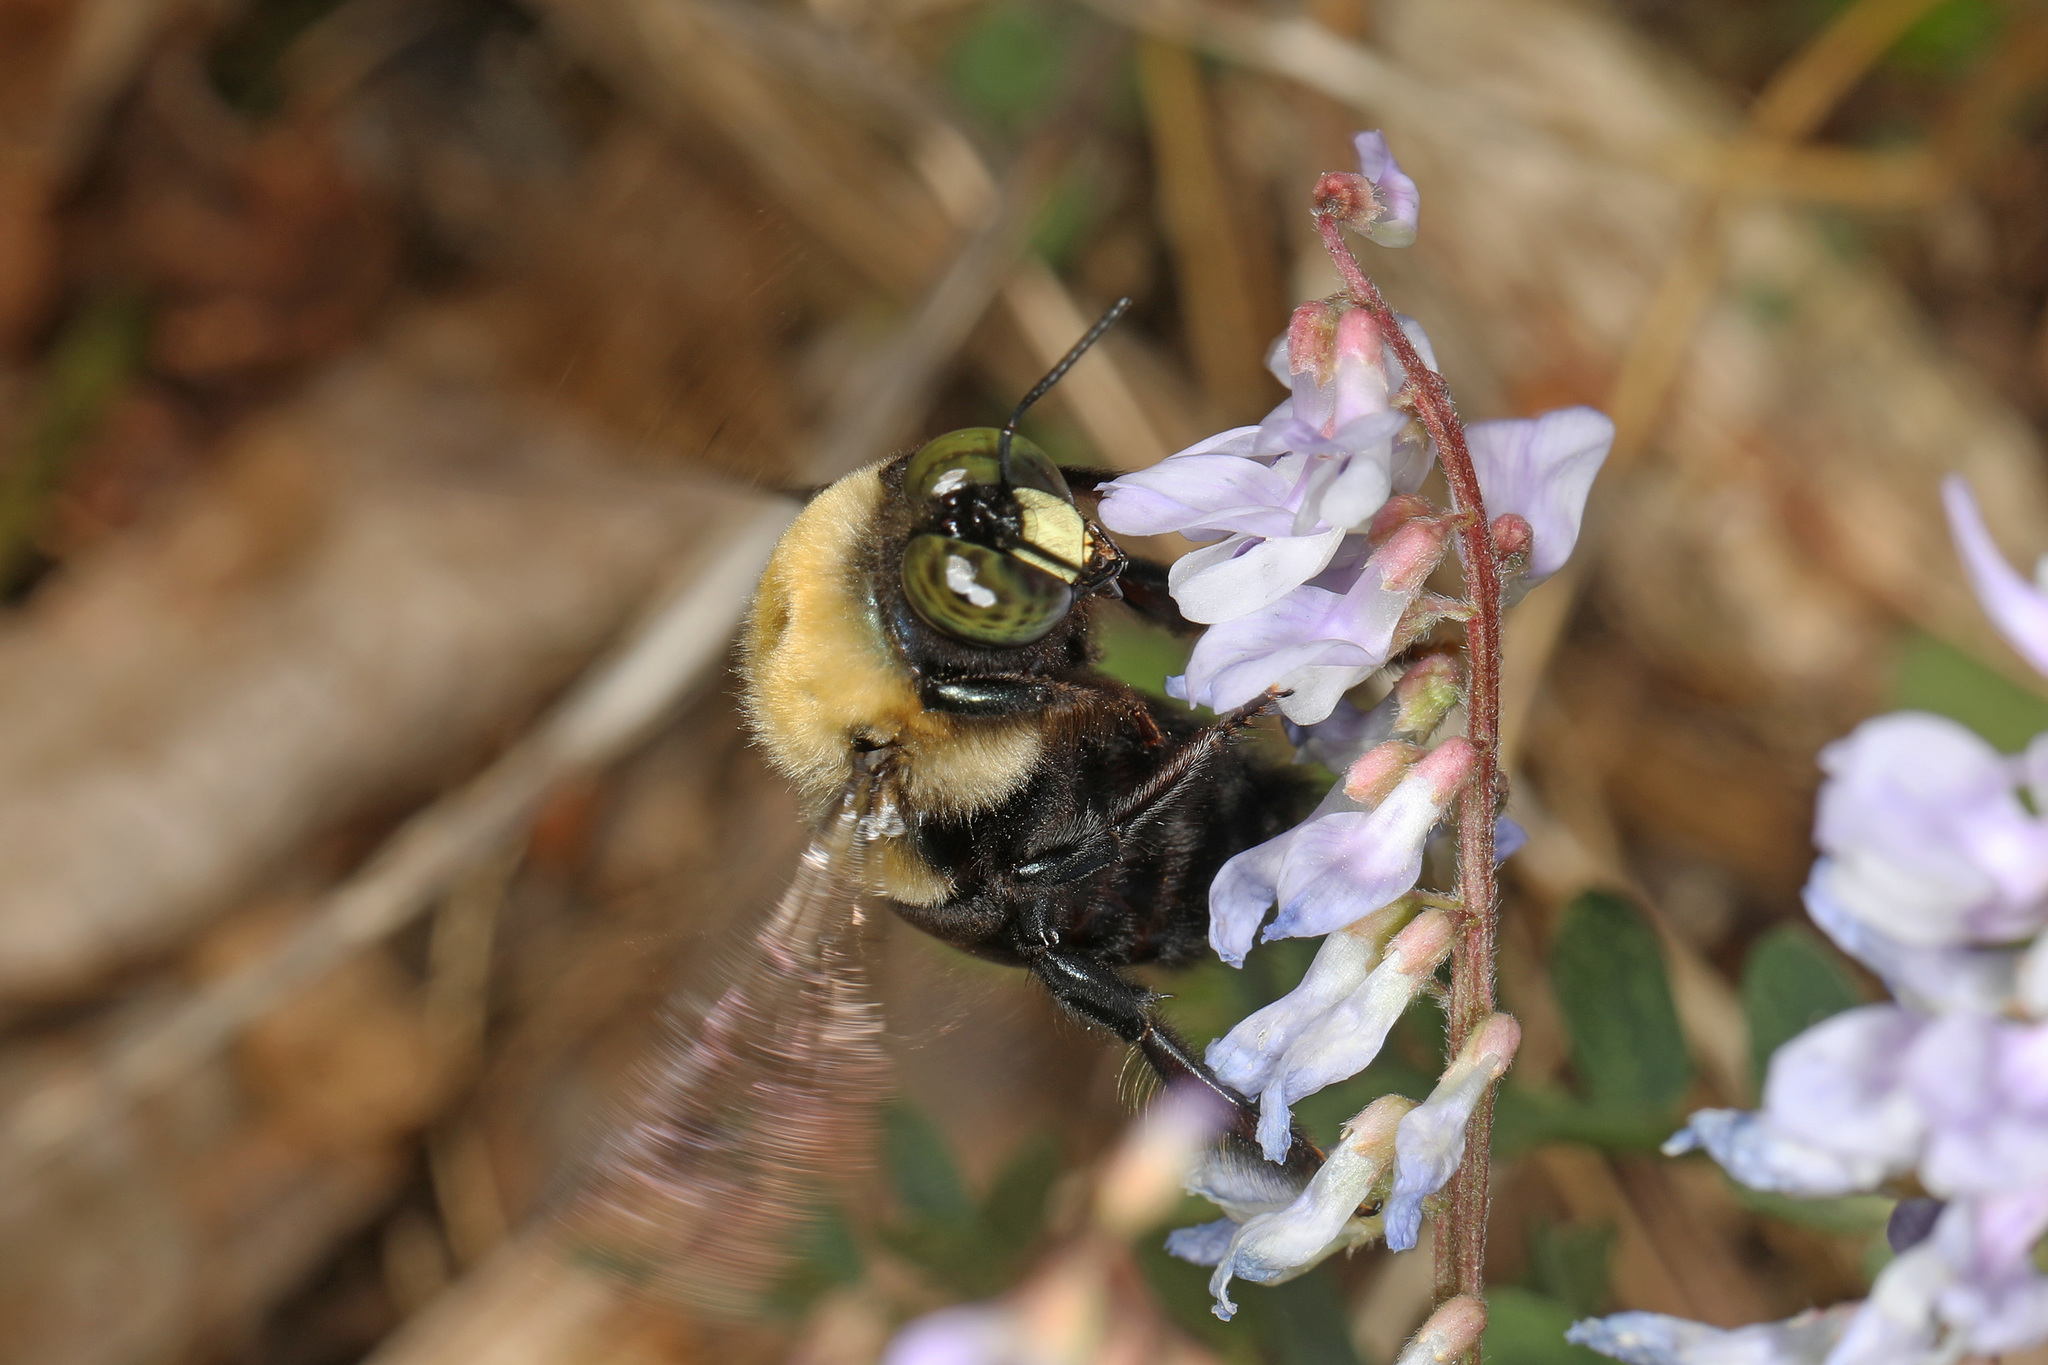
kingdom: Animalia
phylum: Arthropoda
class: Insecta
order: Hymenoptera
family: Apidae
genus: Xylocopa
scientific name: Xylocopa virginica
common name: Carpenter bee
